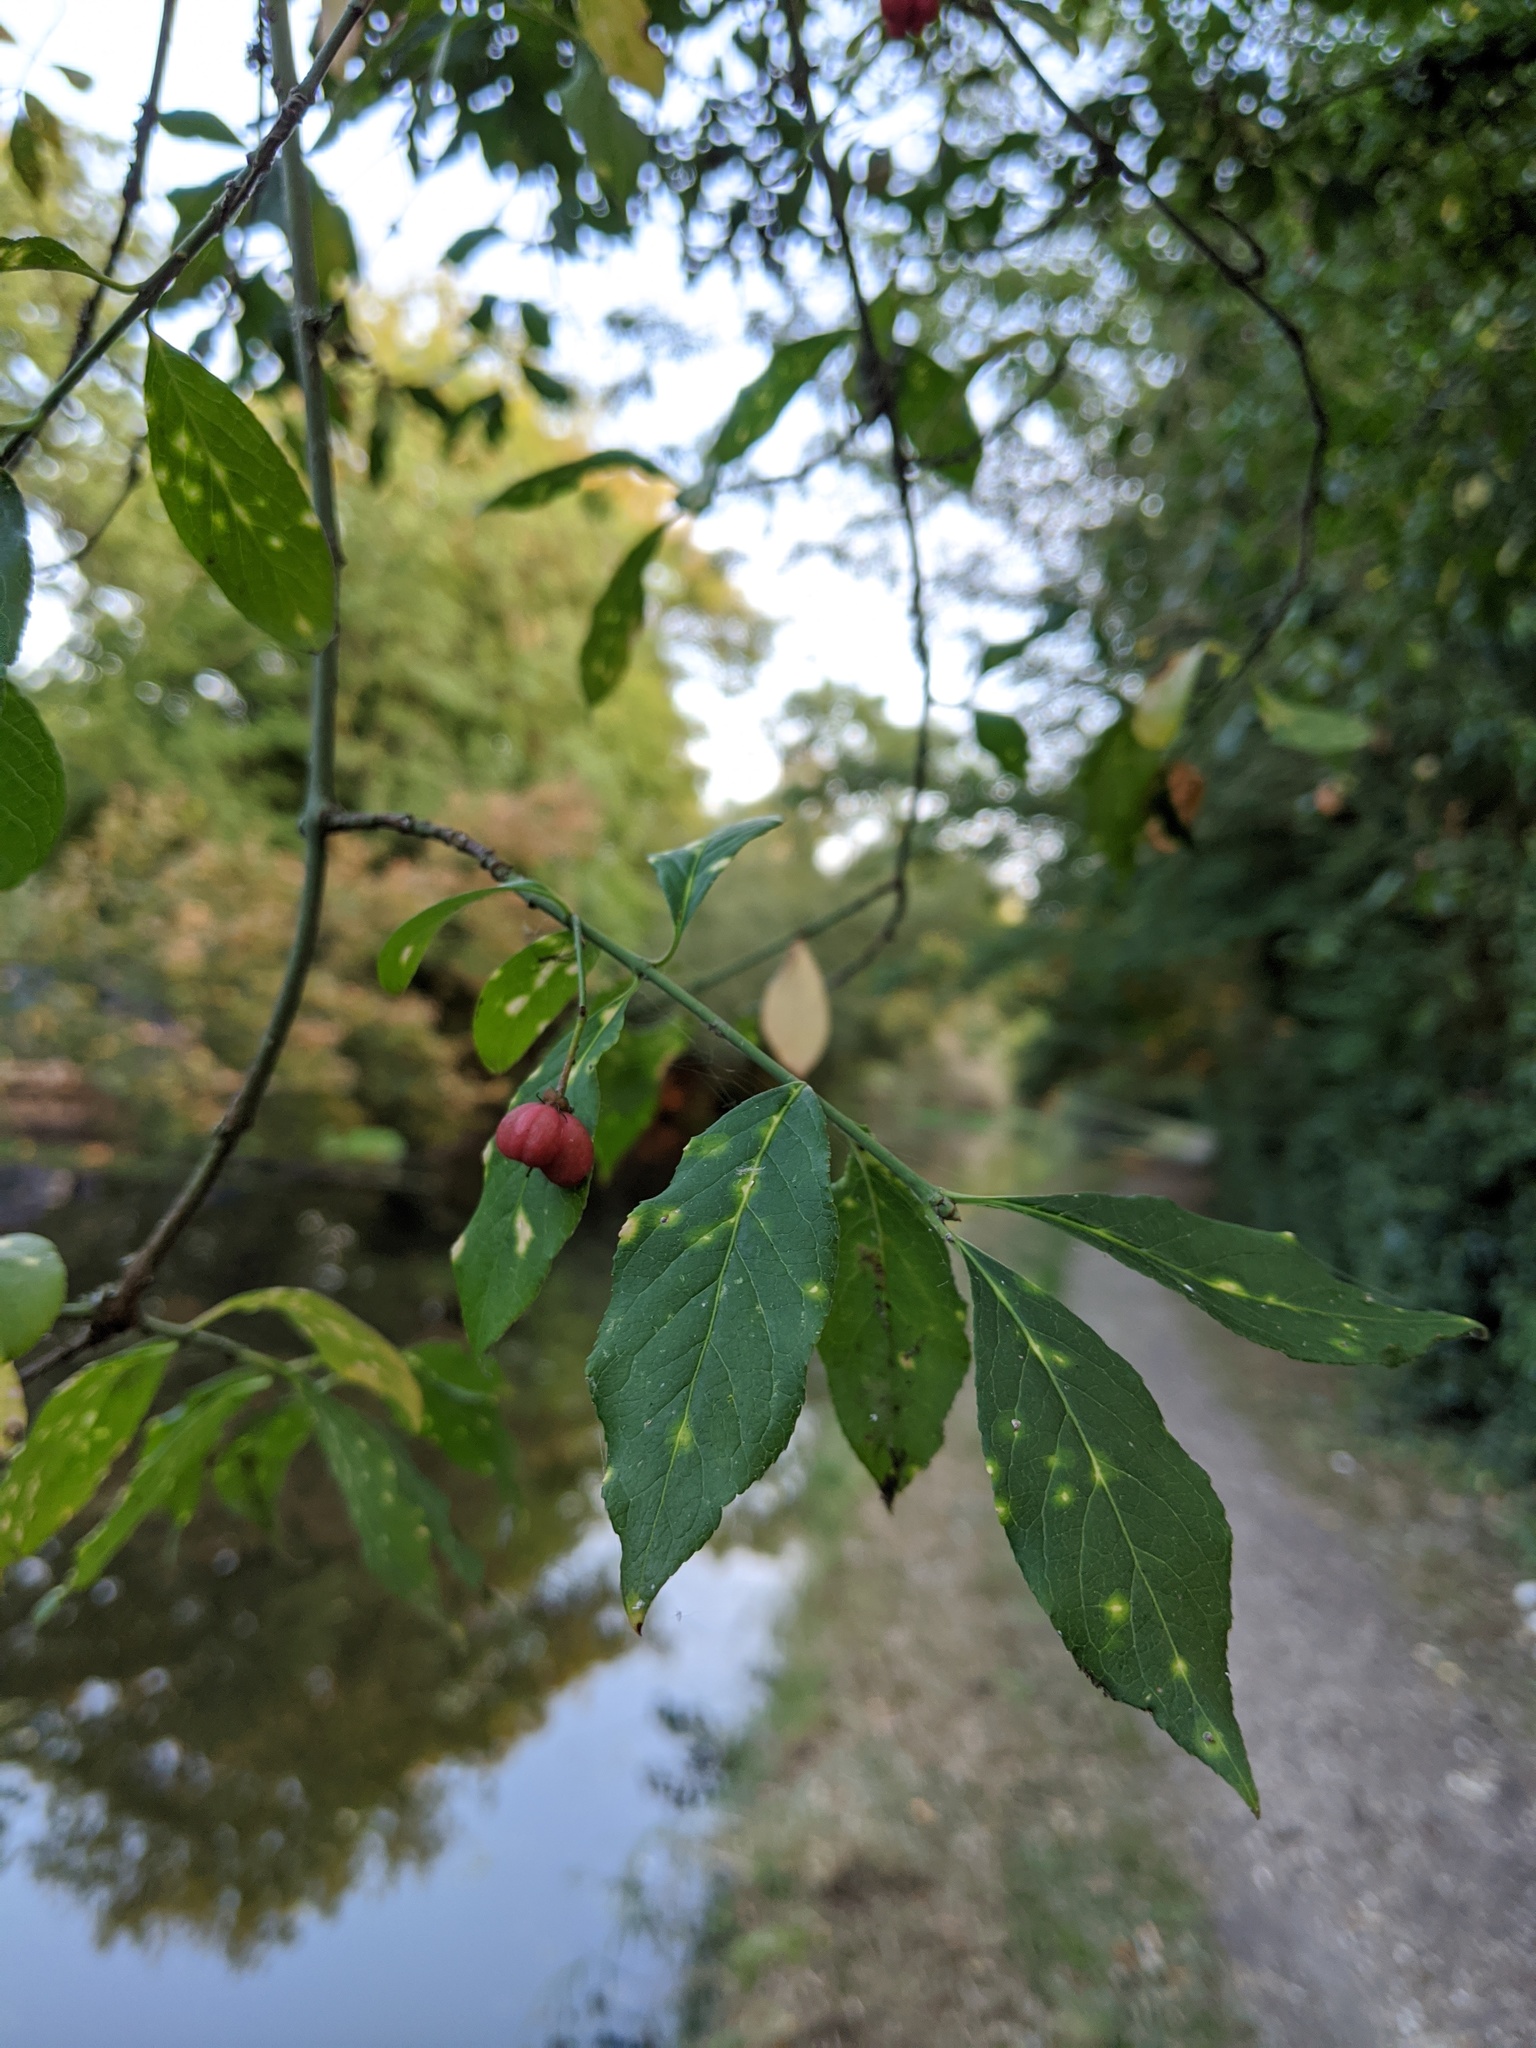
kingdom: Plantae
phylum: Tracheophyta
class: Magnoliopsida
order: Celastrales
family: Celastraceae
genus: Euonymus
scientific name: Euonymus europaeus
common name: Spindle
